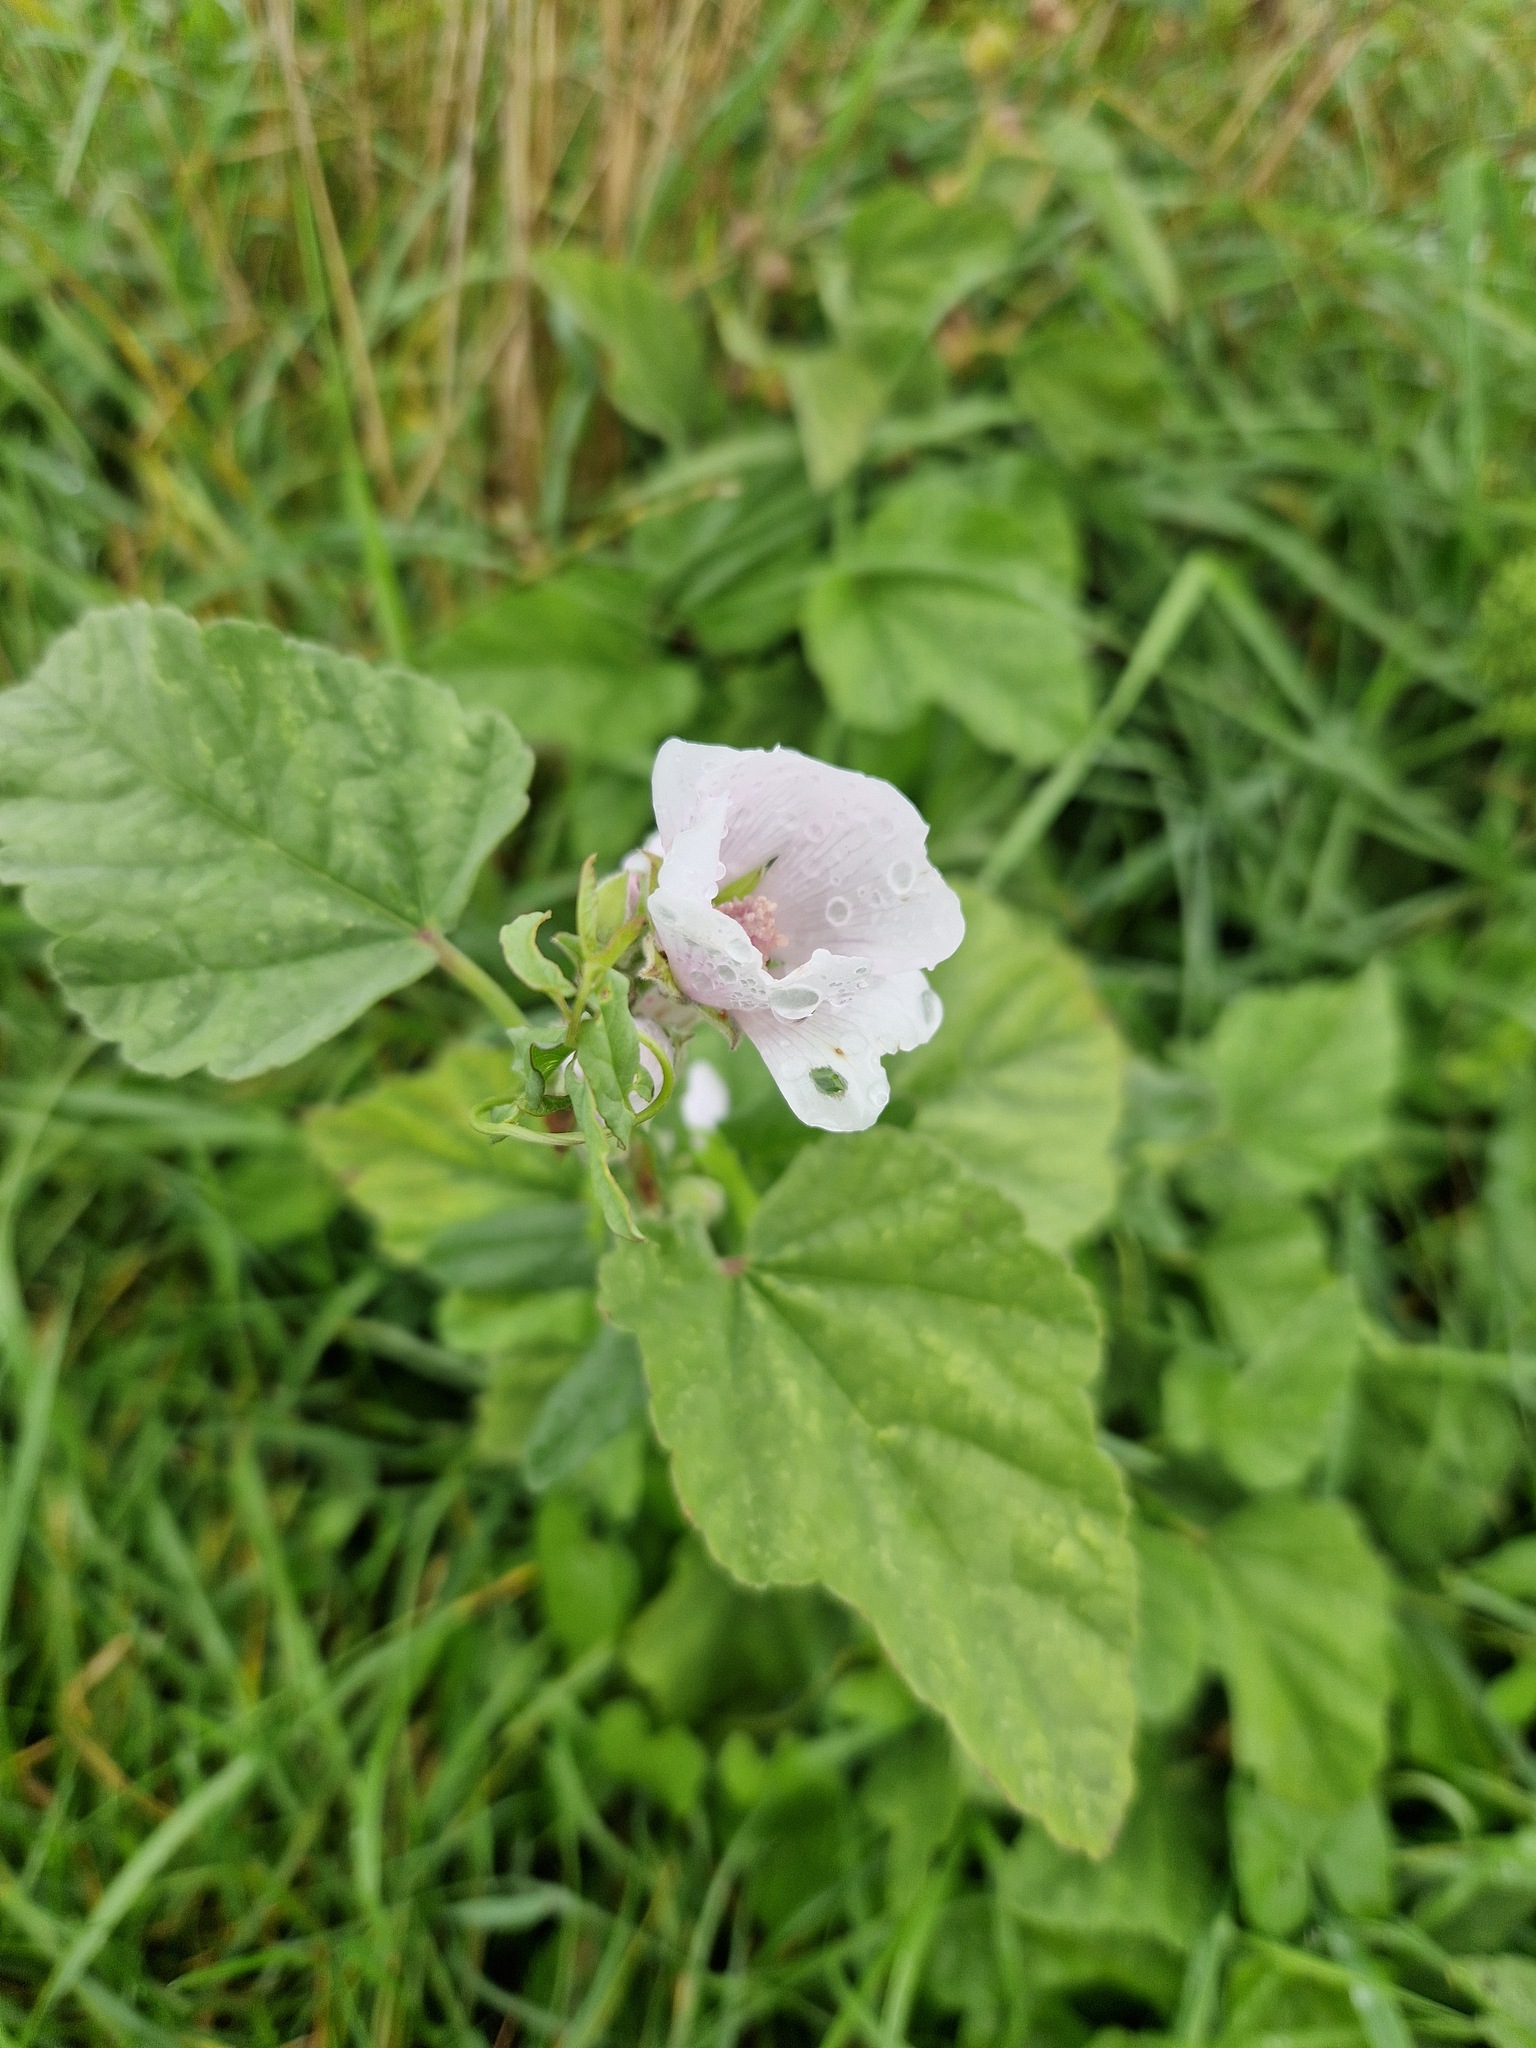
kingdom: Plantae
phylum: Tracheophyta
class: Magnoliopsida
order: Malvales
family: Malvaceae
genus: Althaea
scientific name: Althaea officinalis
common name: Marsh-mallow
